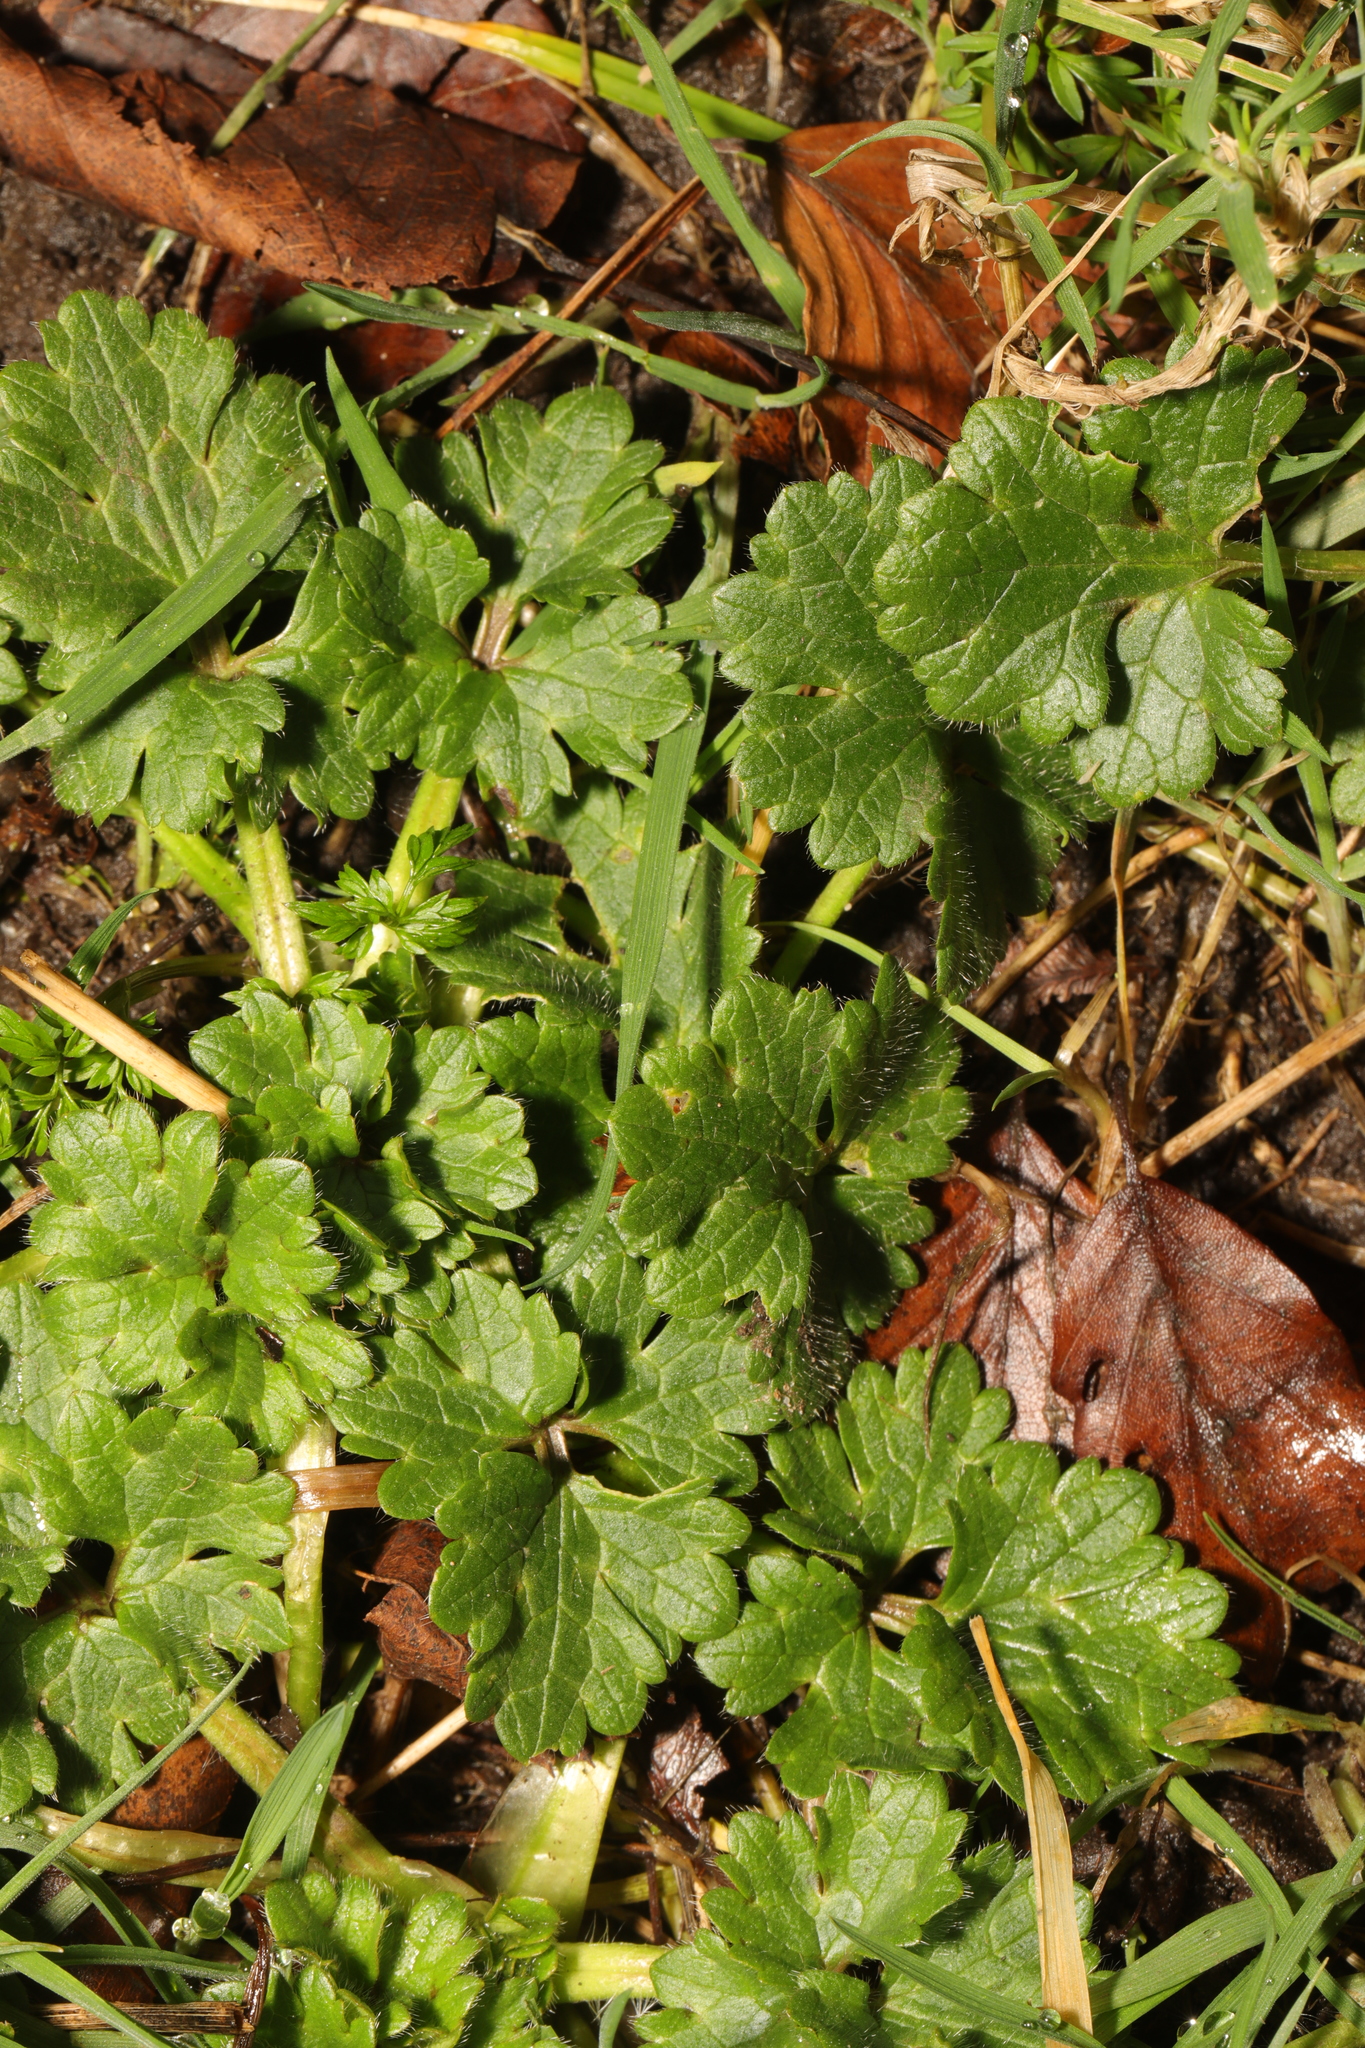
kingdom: Plantae
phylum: Tracheophyta
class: Magnoliopsida
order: Ranunculales
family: Ranunculaceae
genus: Ranunculus
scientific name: Ranunculus bulbosus
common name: Bulbous buttercup
